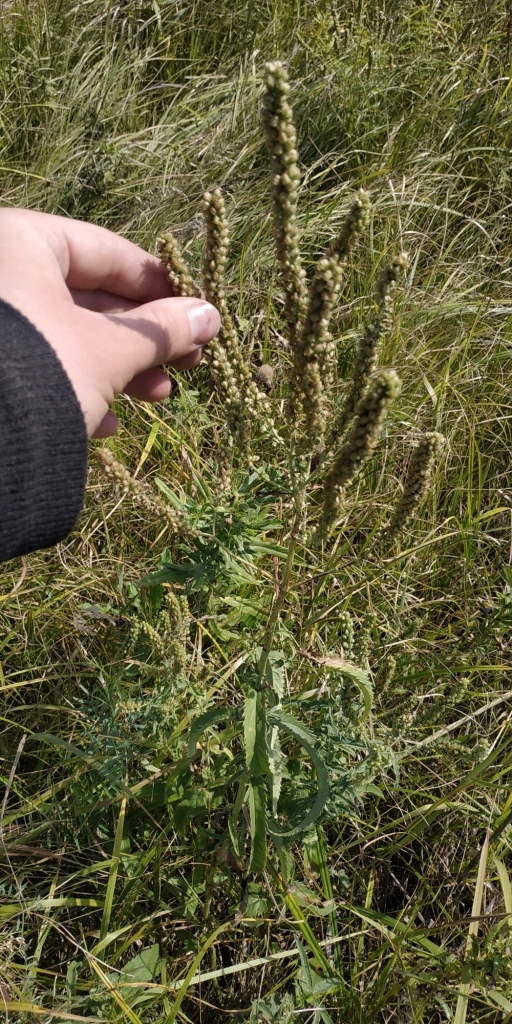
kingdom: Plantae
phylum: Tracheophyta
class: Magnoliopsida
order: Lamiales
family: Plantaginaceae
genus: Veronica
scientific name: Veronica longifolia
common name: Garden speedwell
